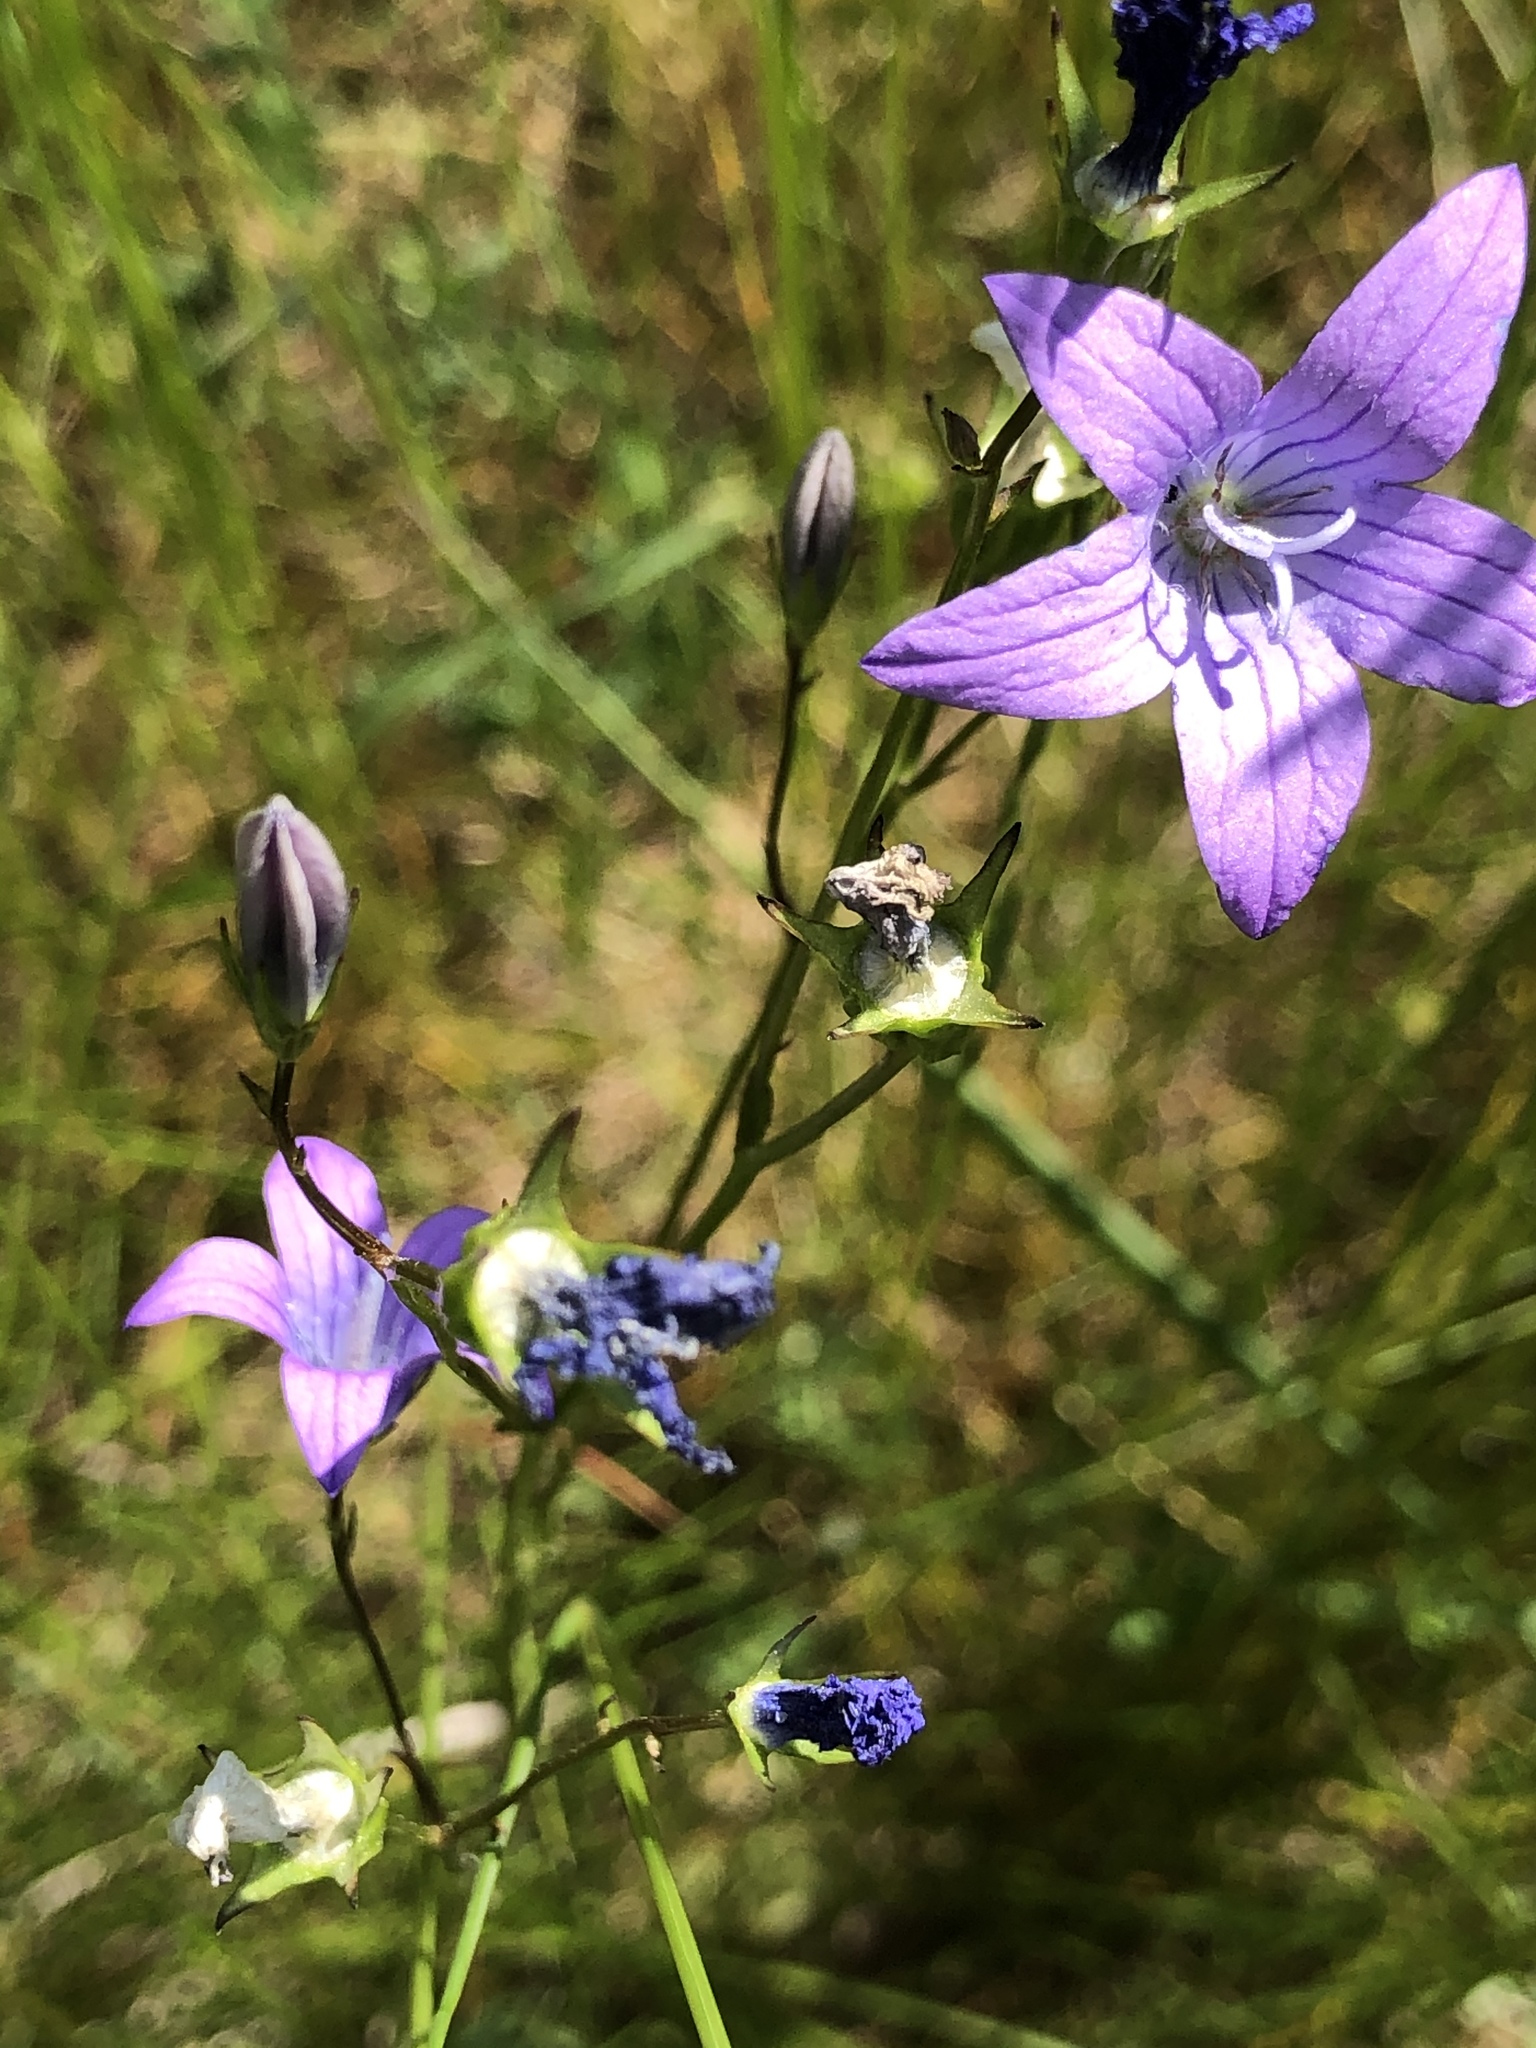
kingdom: Plantae
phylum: Tracheophyta
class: Magnoliopsida
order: Asterales
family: Campanulaceae
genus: Campanula
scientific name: Campanula patula
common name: Spreading bellflower
